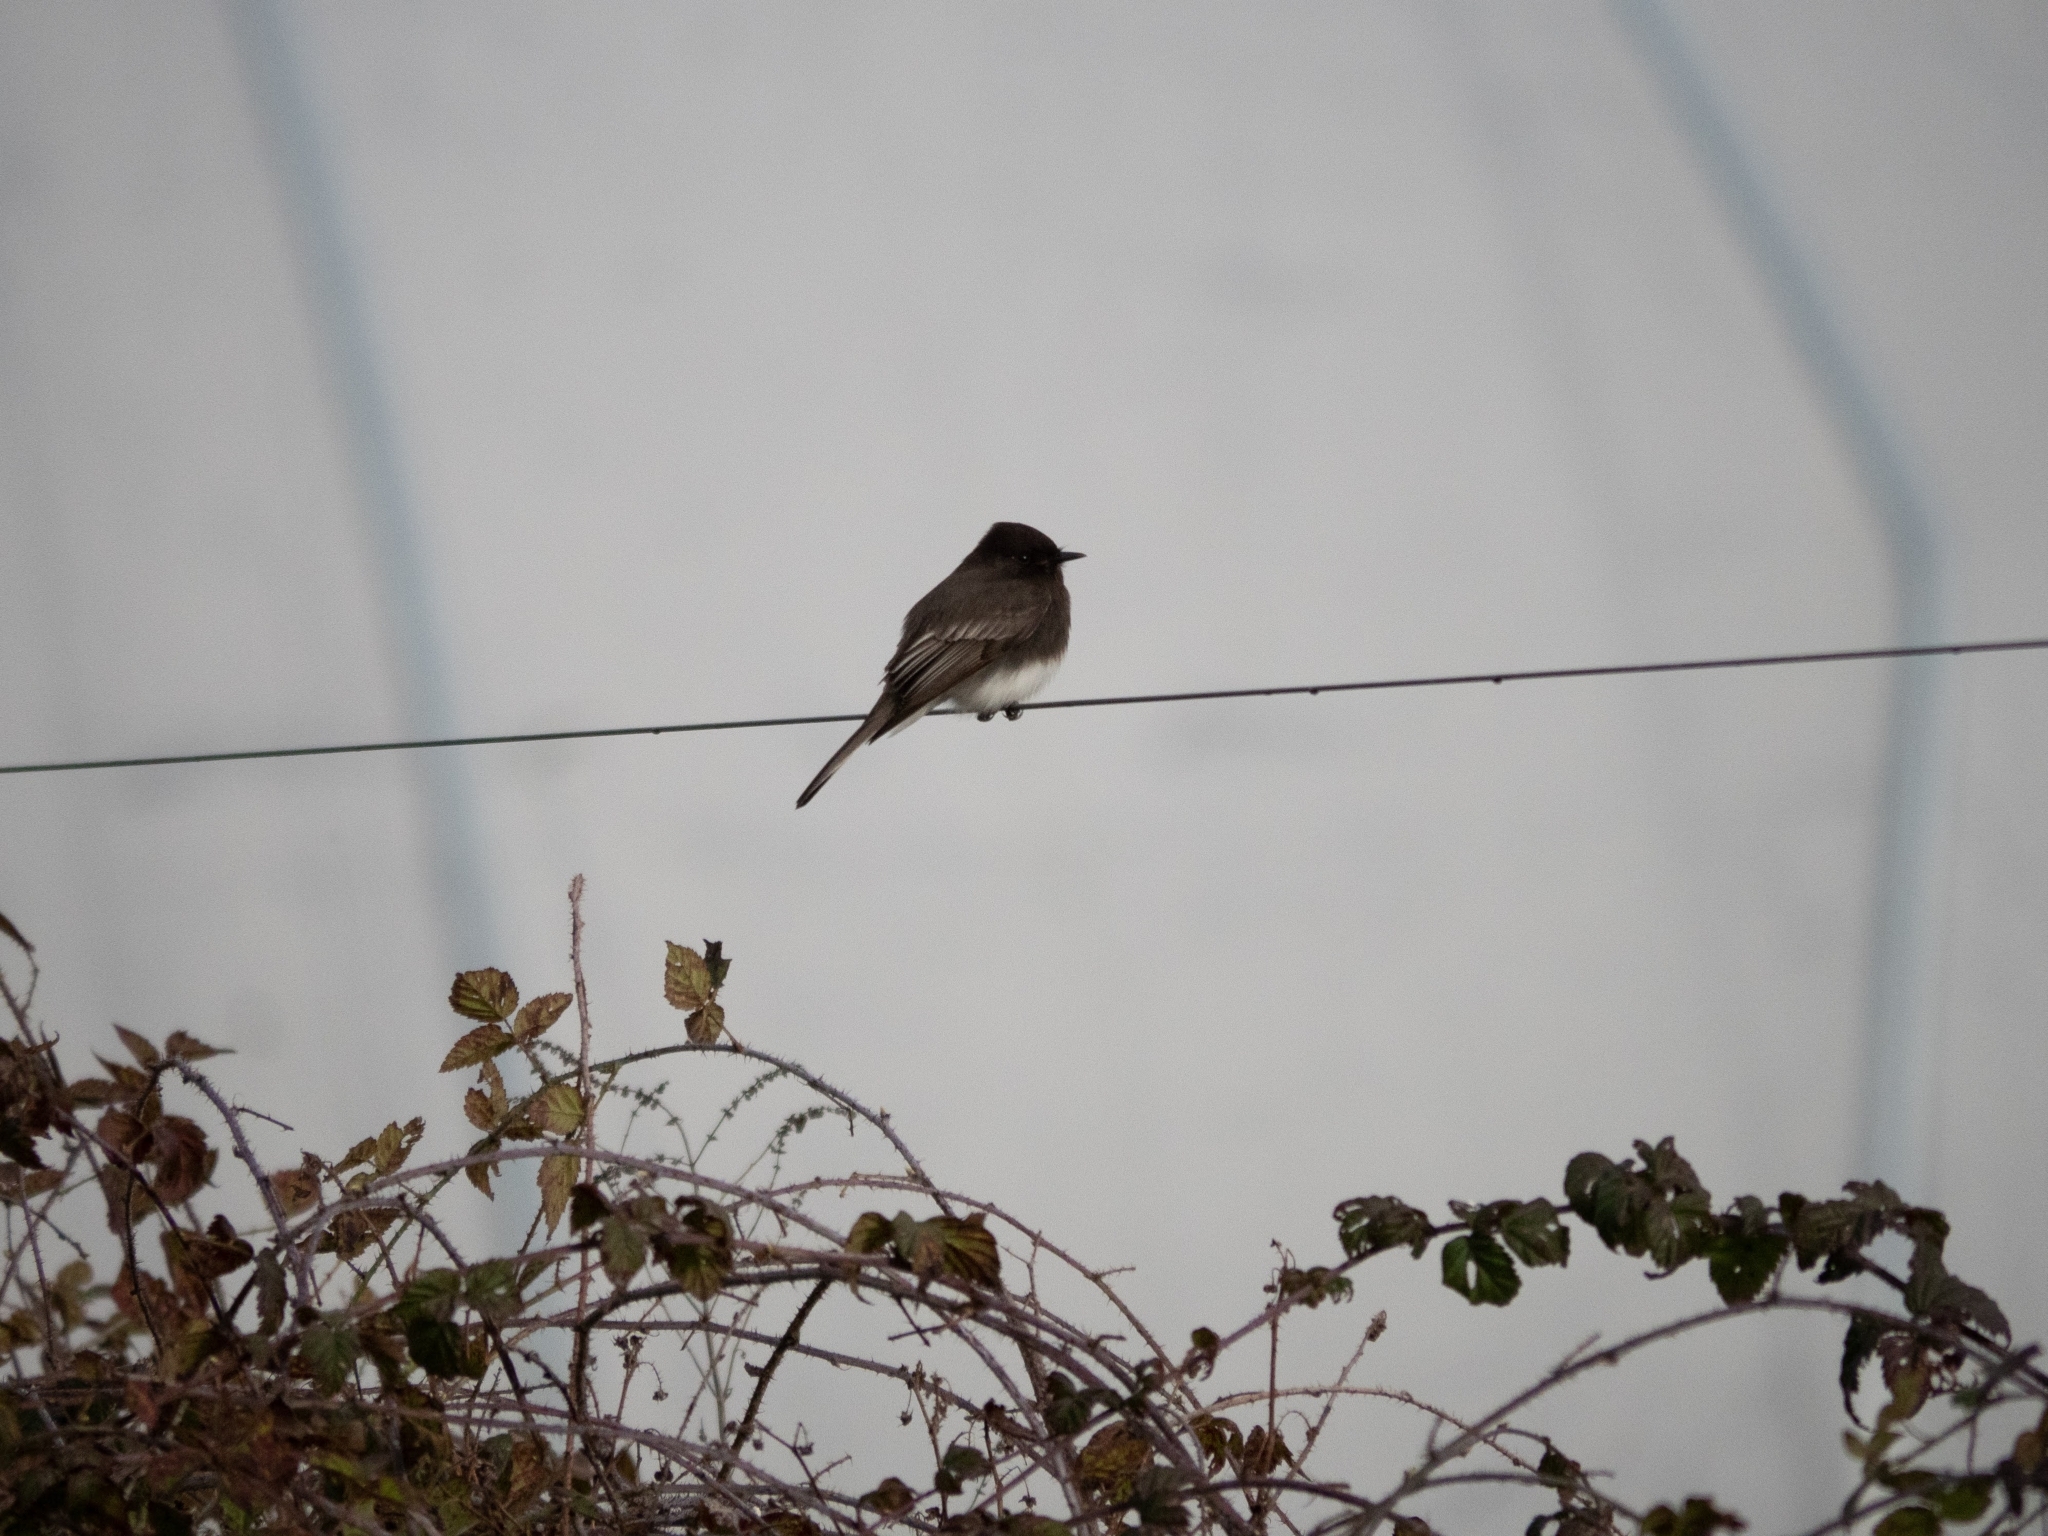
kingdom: Animalia
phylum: Chordata
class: Aves
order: Passeriformes
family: Tyrannidae
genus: Sayornis
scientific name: Sayornis nigricans
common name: Black phoebe
